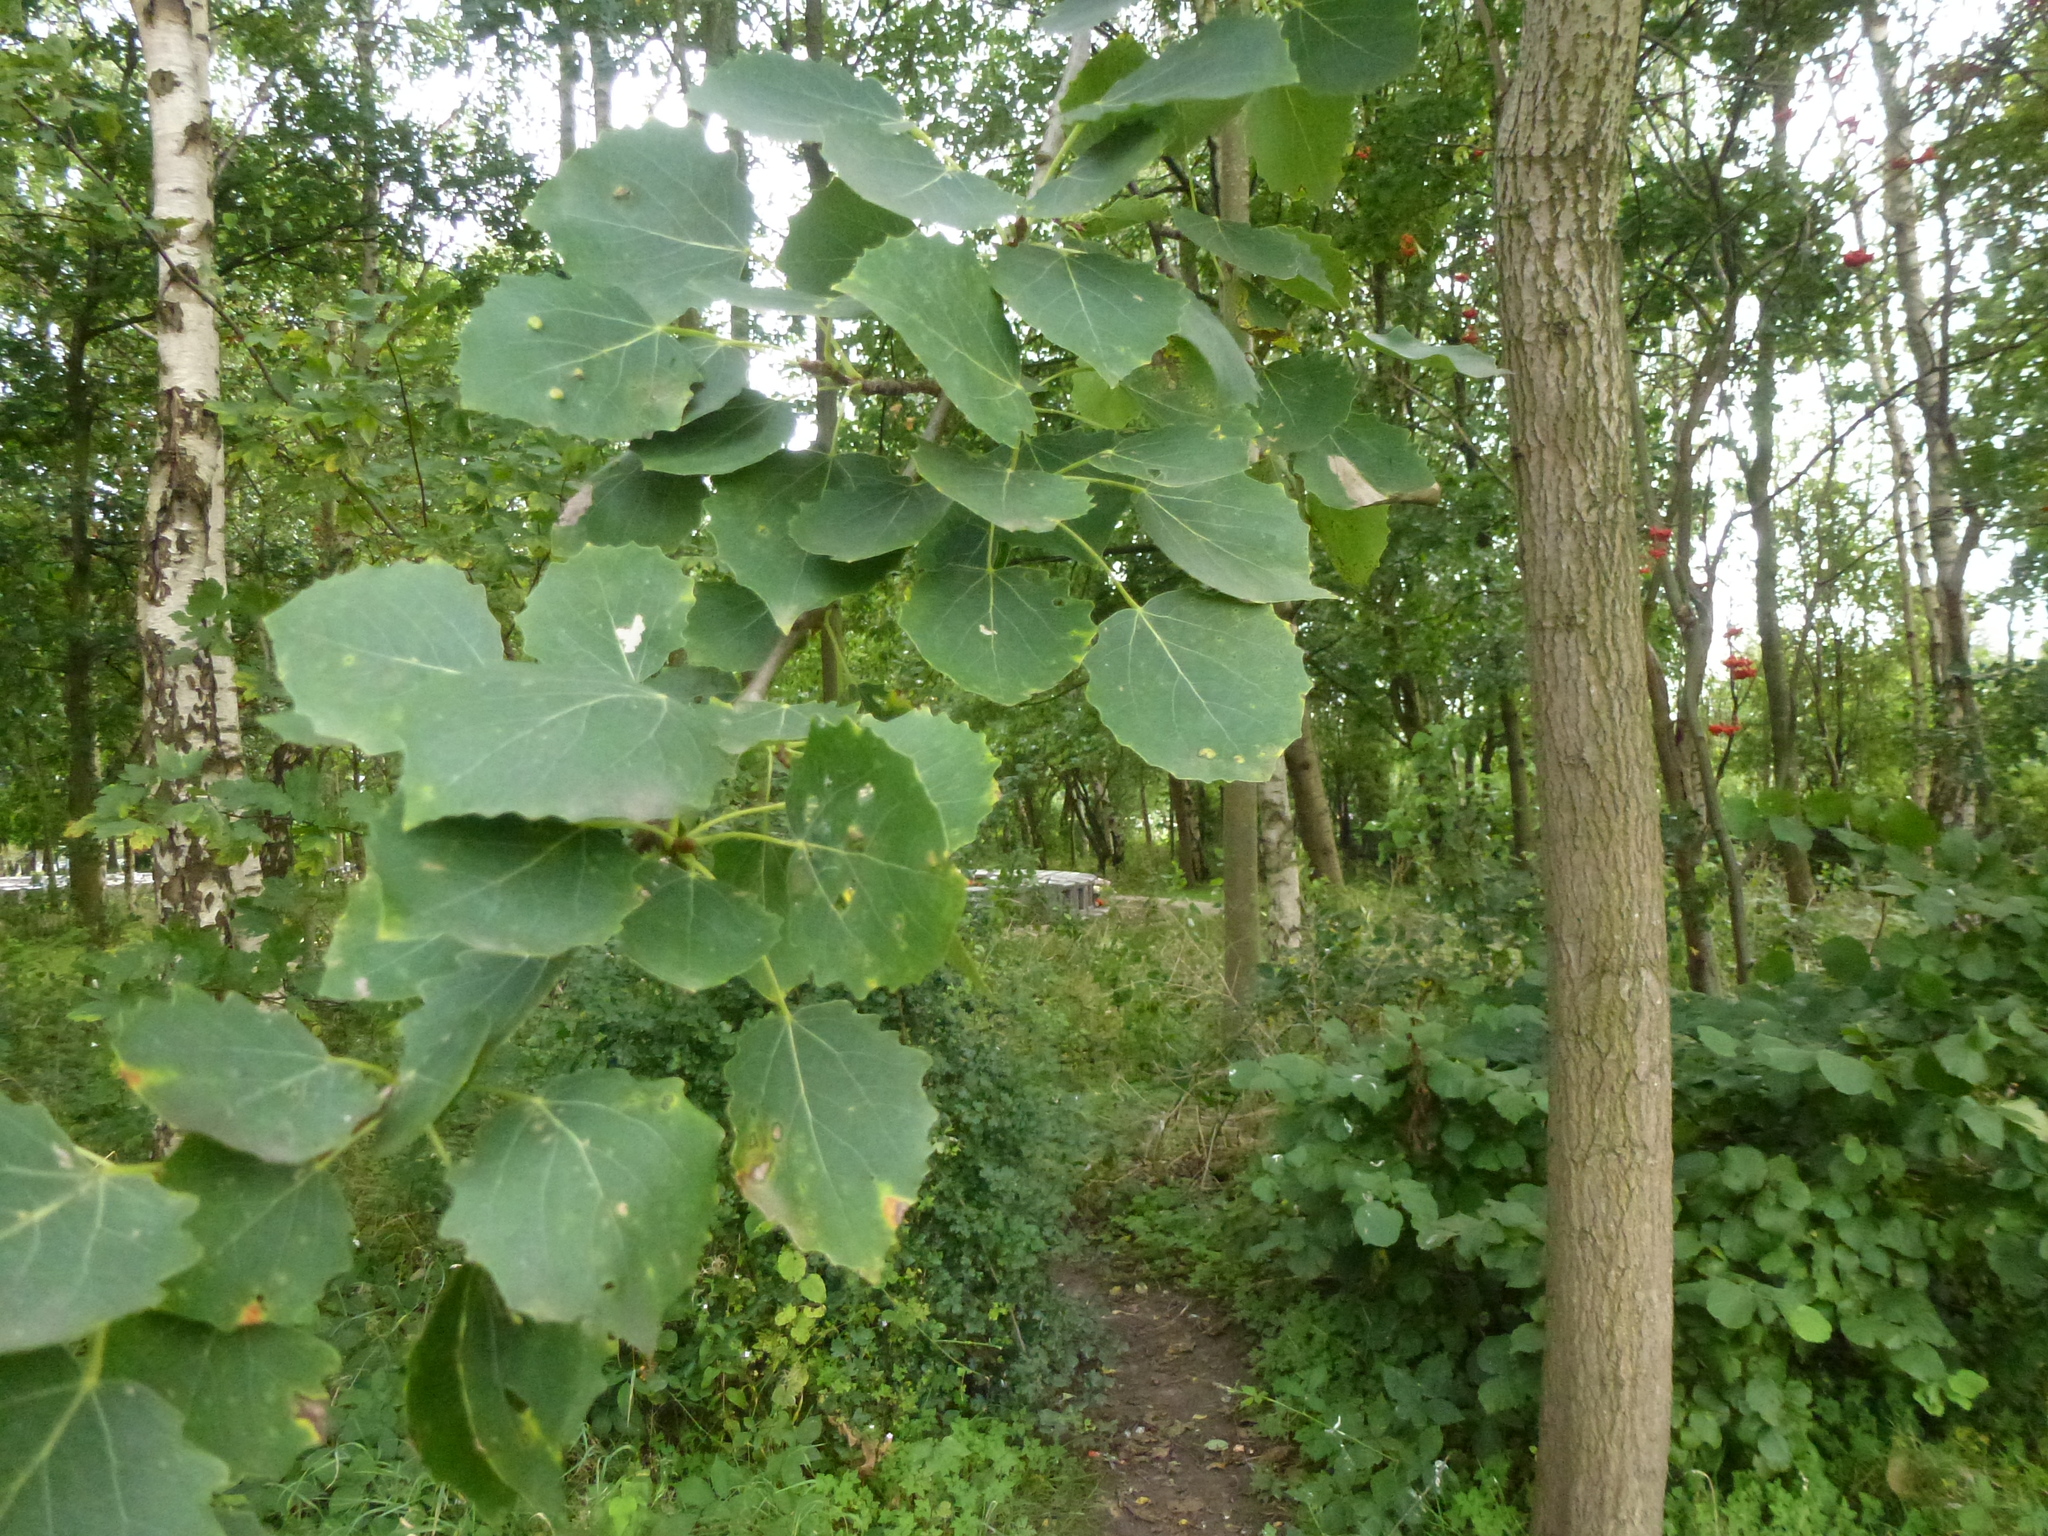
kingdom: Plantae
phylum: Tracheophyta
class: Magnoliopsida
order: Malpighiales
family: Salicaceae
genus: Populus
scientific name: Populus tremula
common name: European aspen
